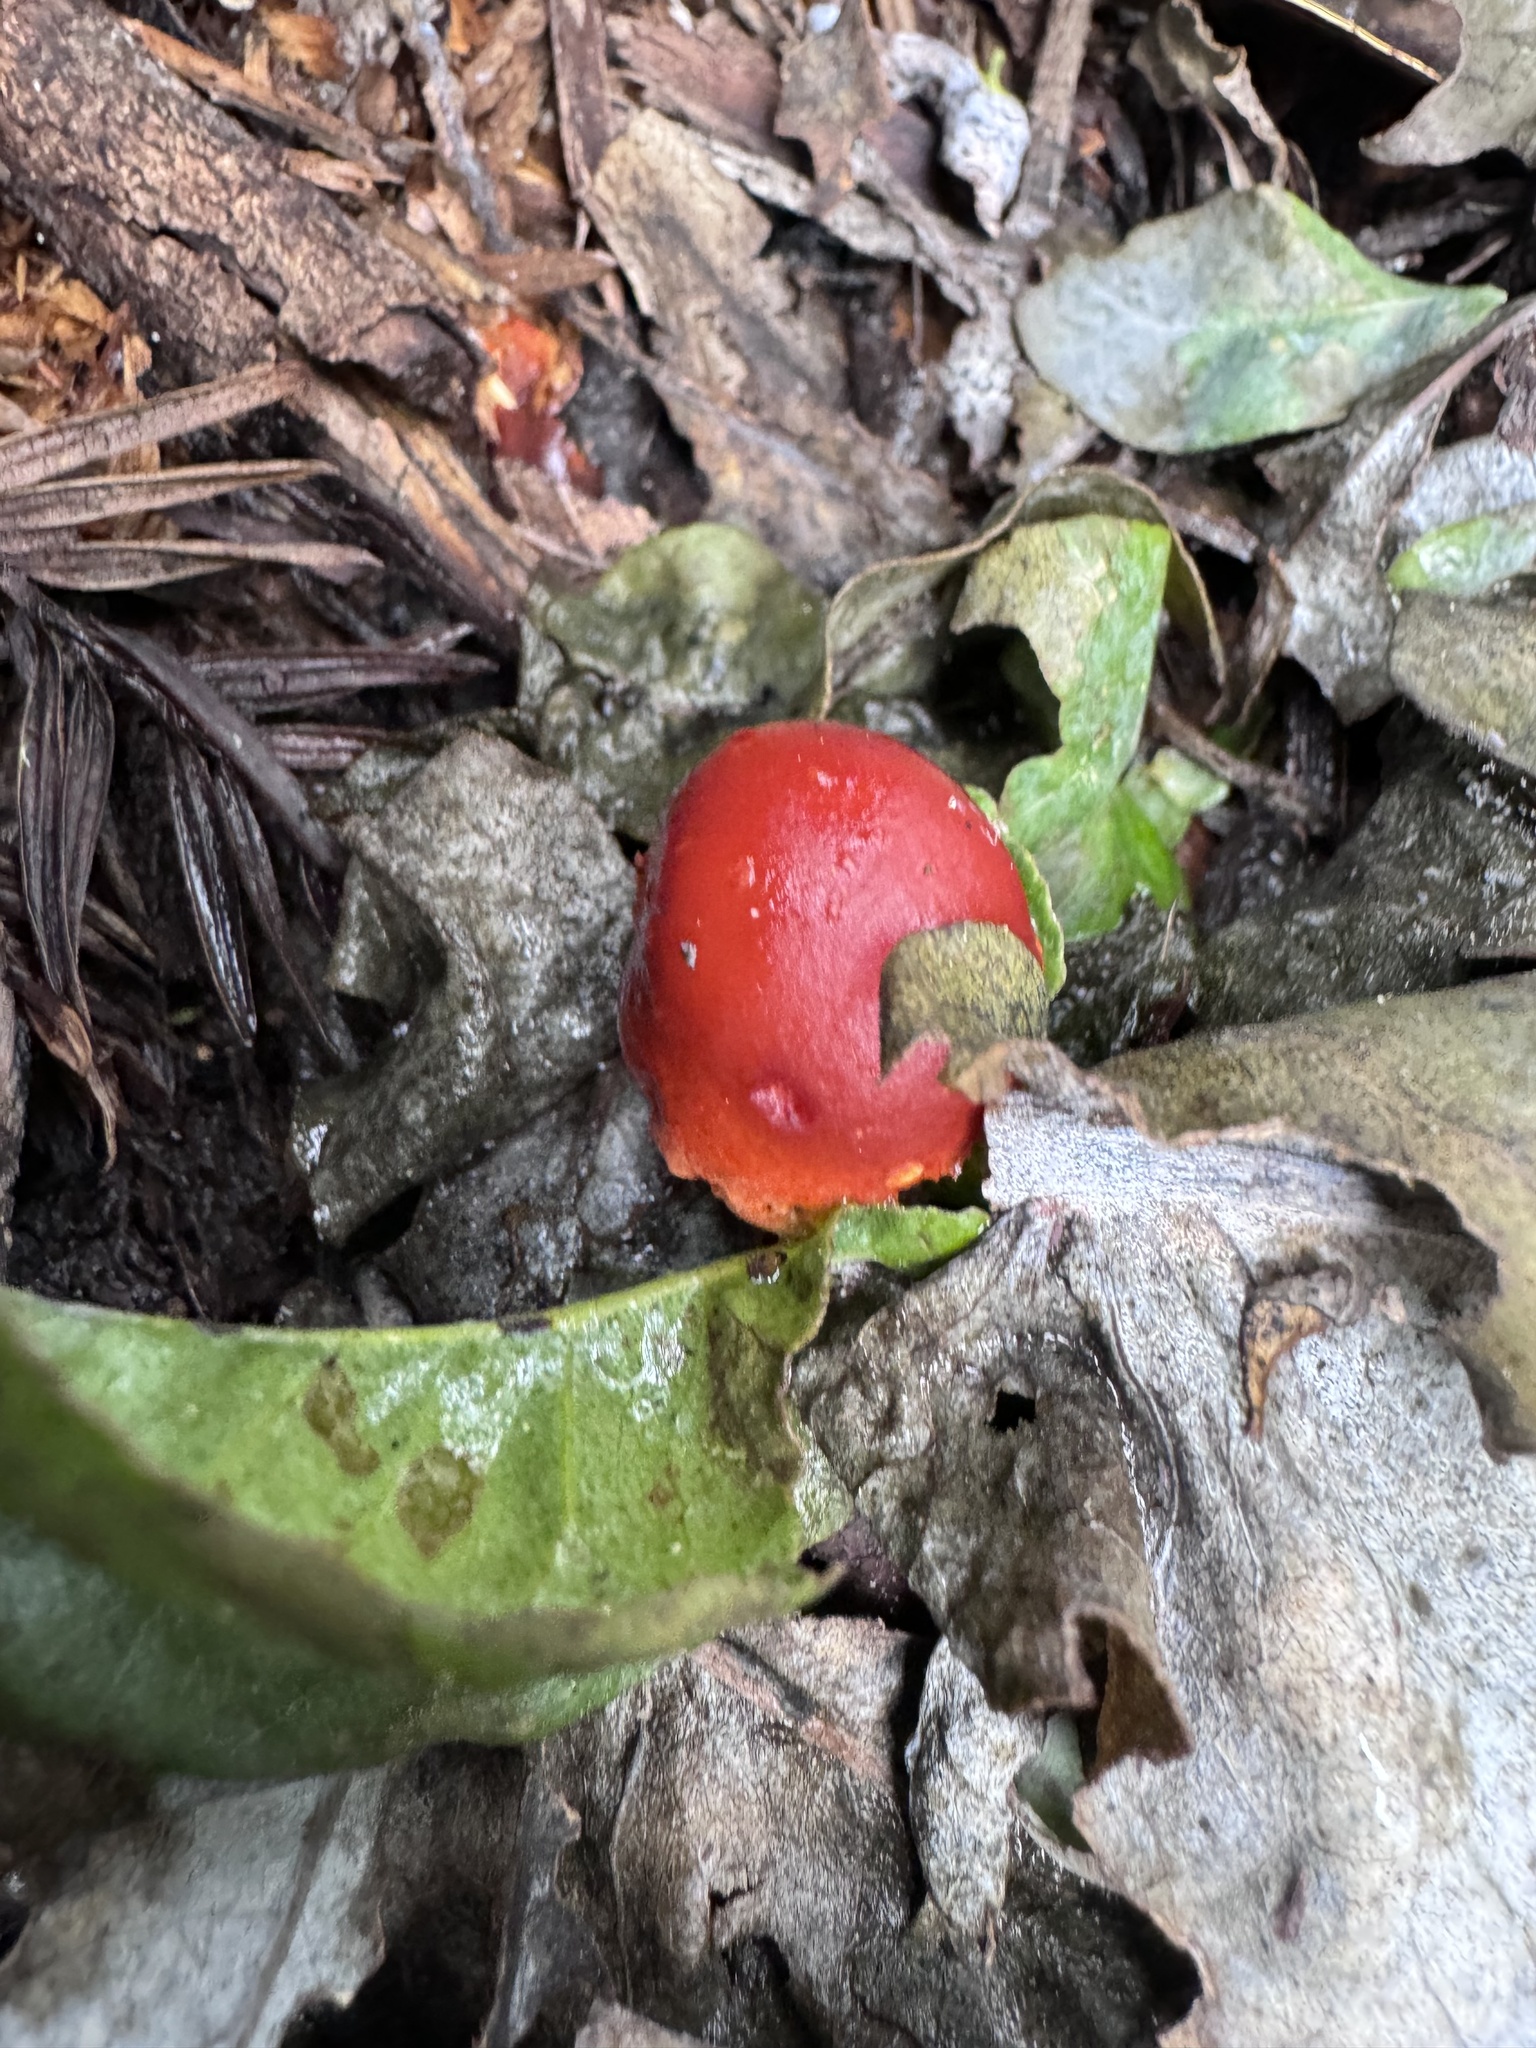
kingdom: Fungi
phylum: Basidiomycota
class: Agaricomycetes
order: Agaricales
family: Strophariaceae
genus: Leratiomyces
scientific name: Leratiomyces ceres
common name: Redlead roundhead
